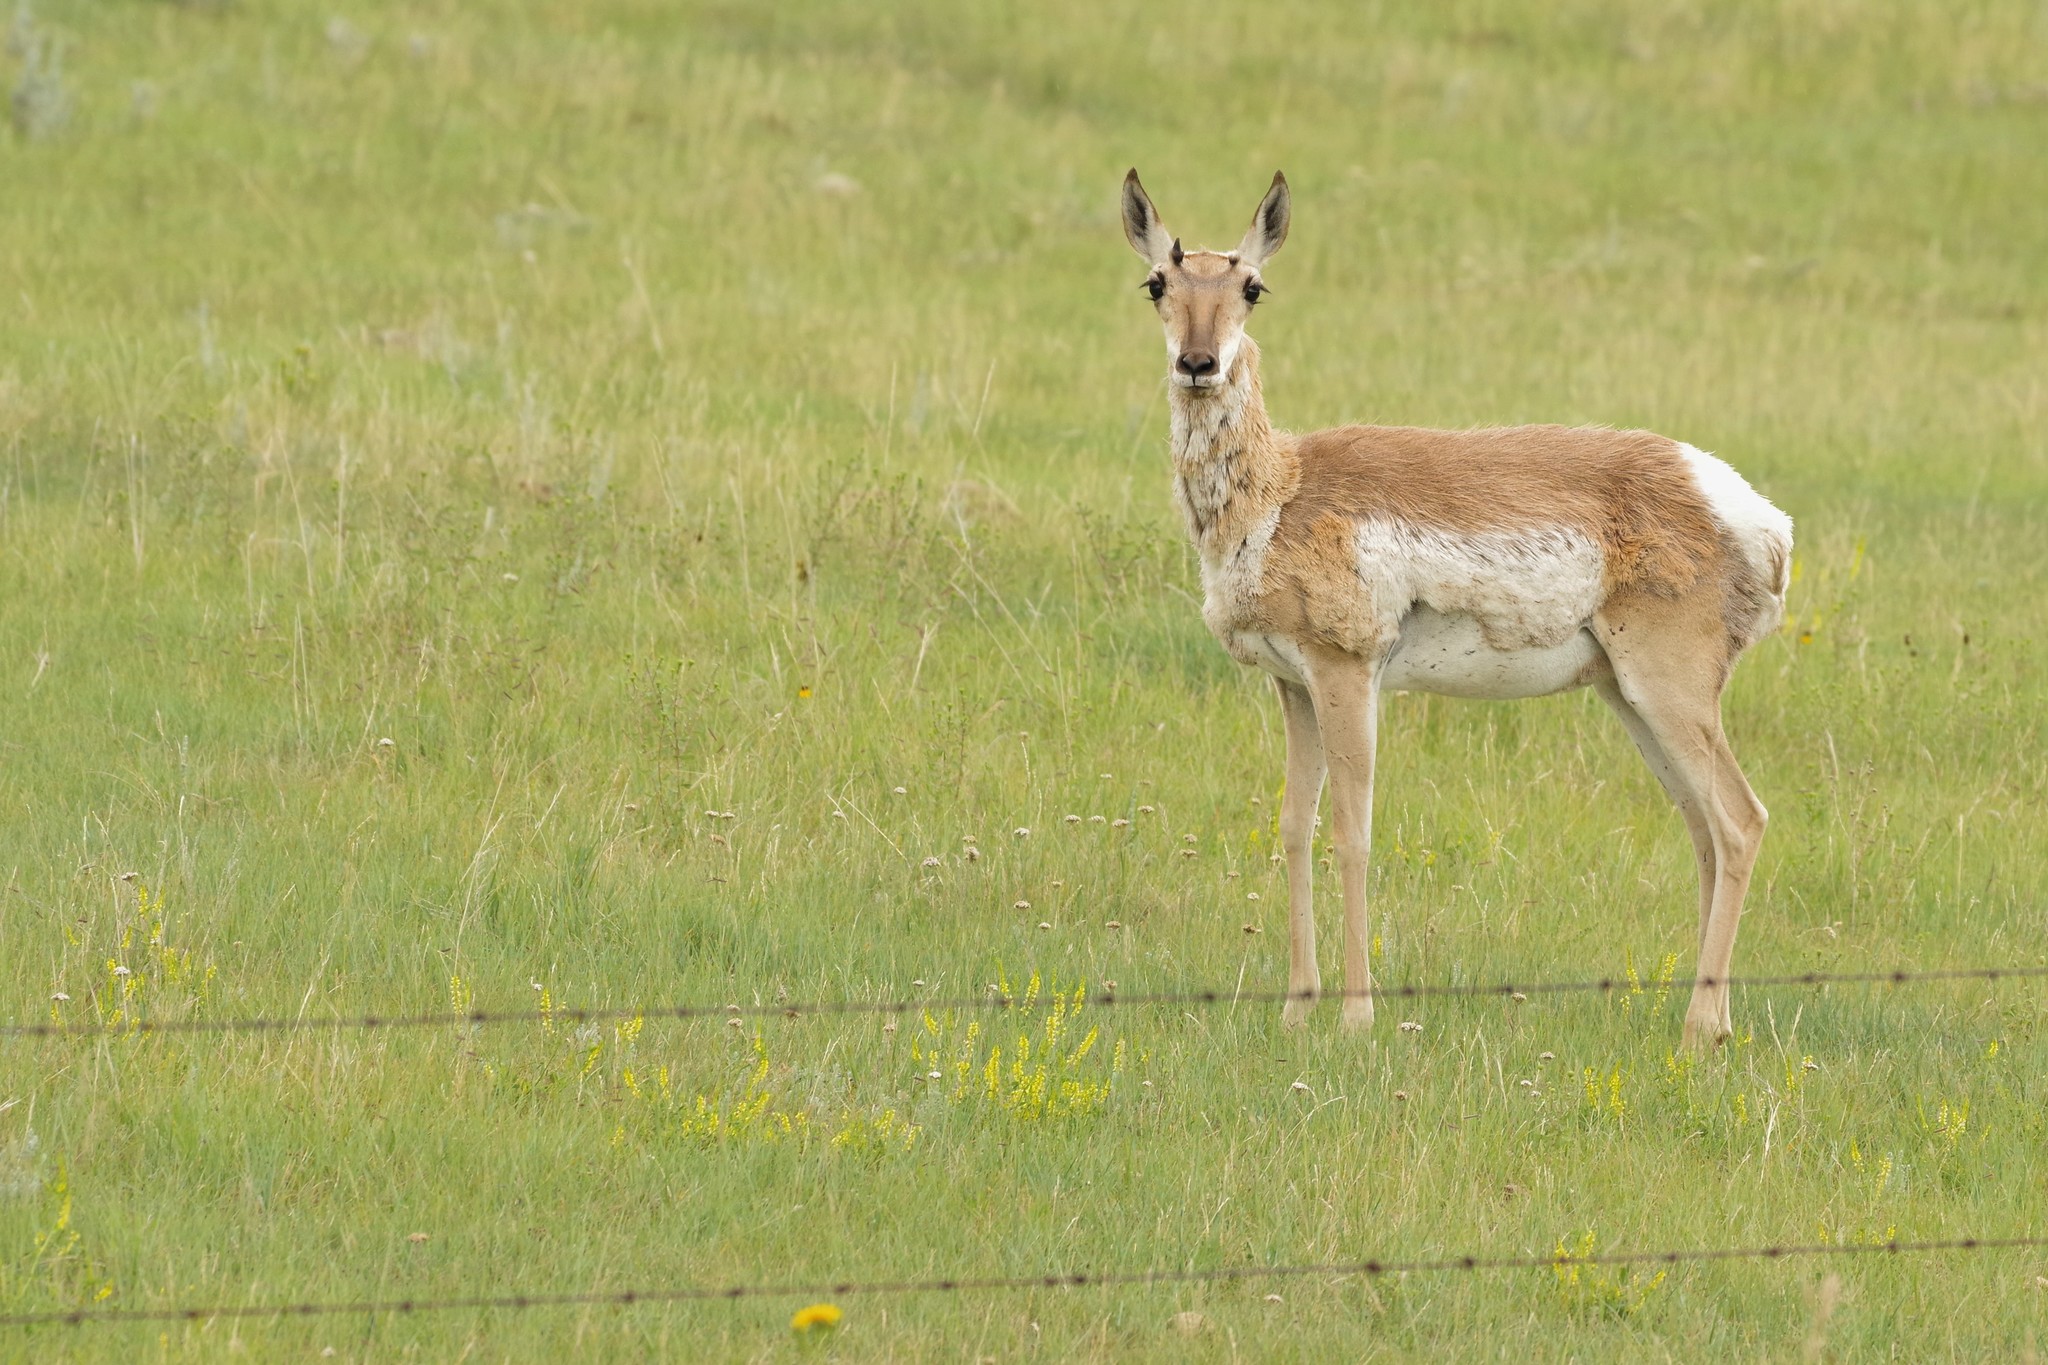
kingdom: Animalia
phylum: Chordata
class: Mammalia
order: Artiodactyla
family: Antilocapridae
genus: Antilocapra
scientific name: Antilocapra americana
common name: Pronghorn
